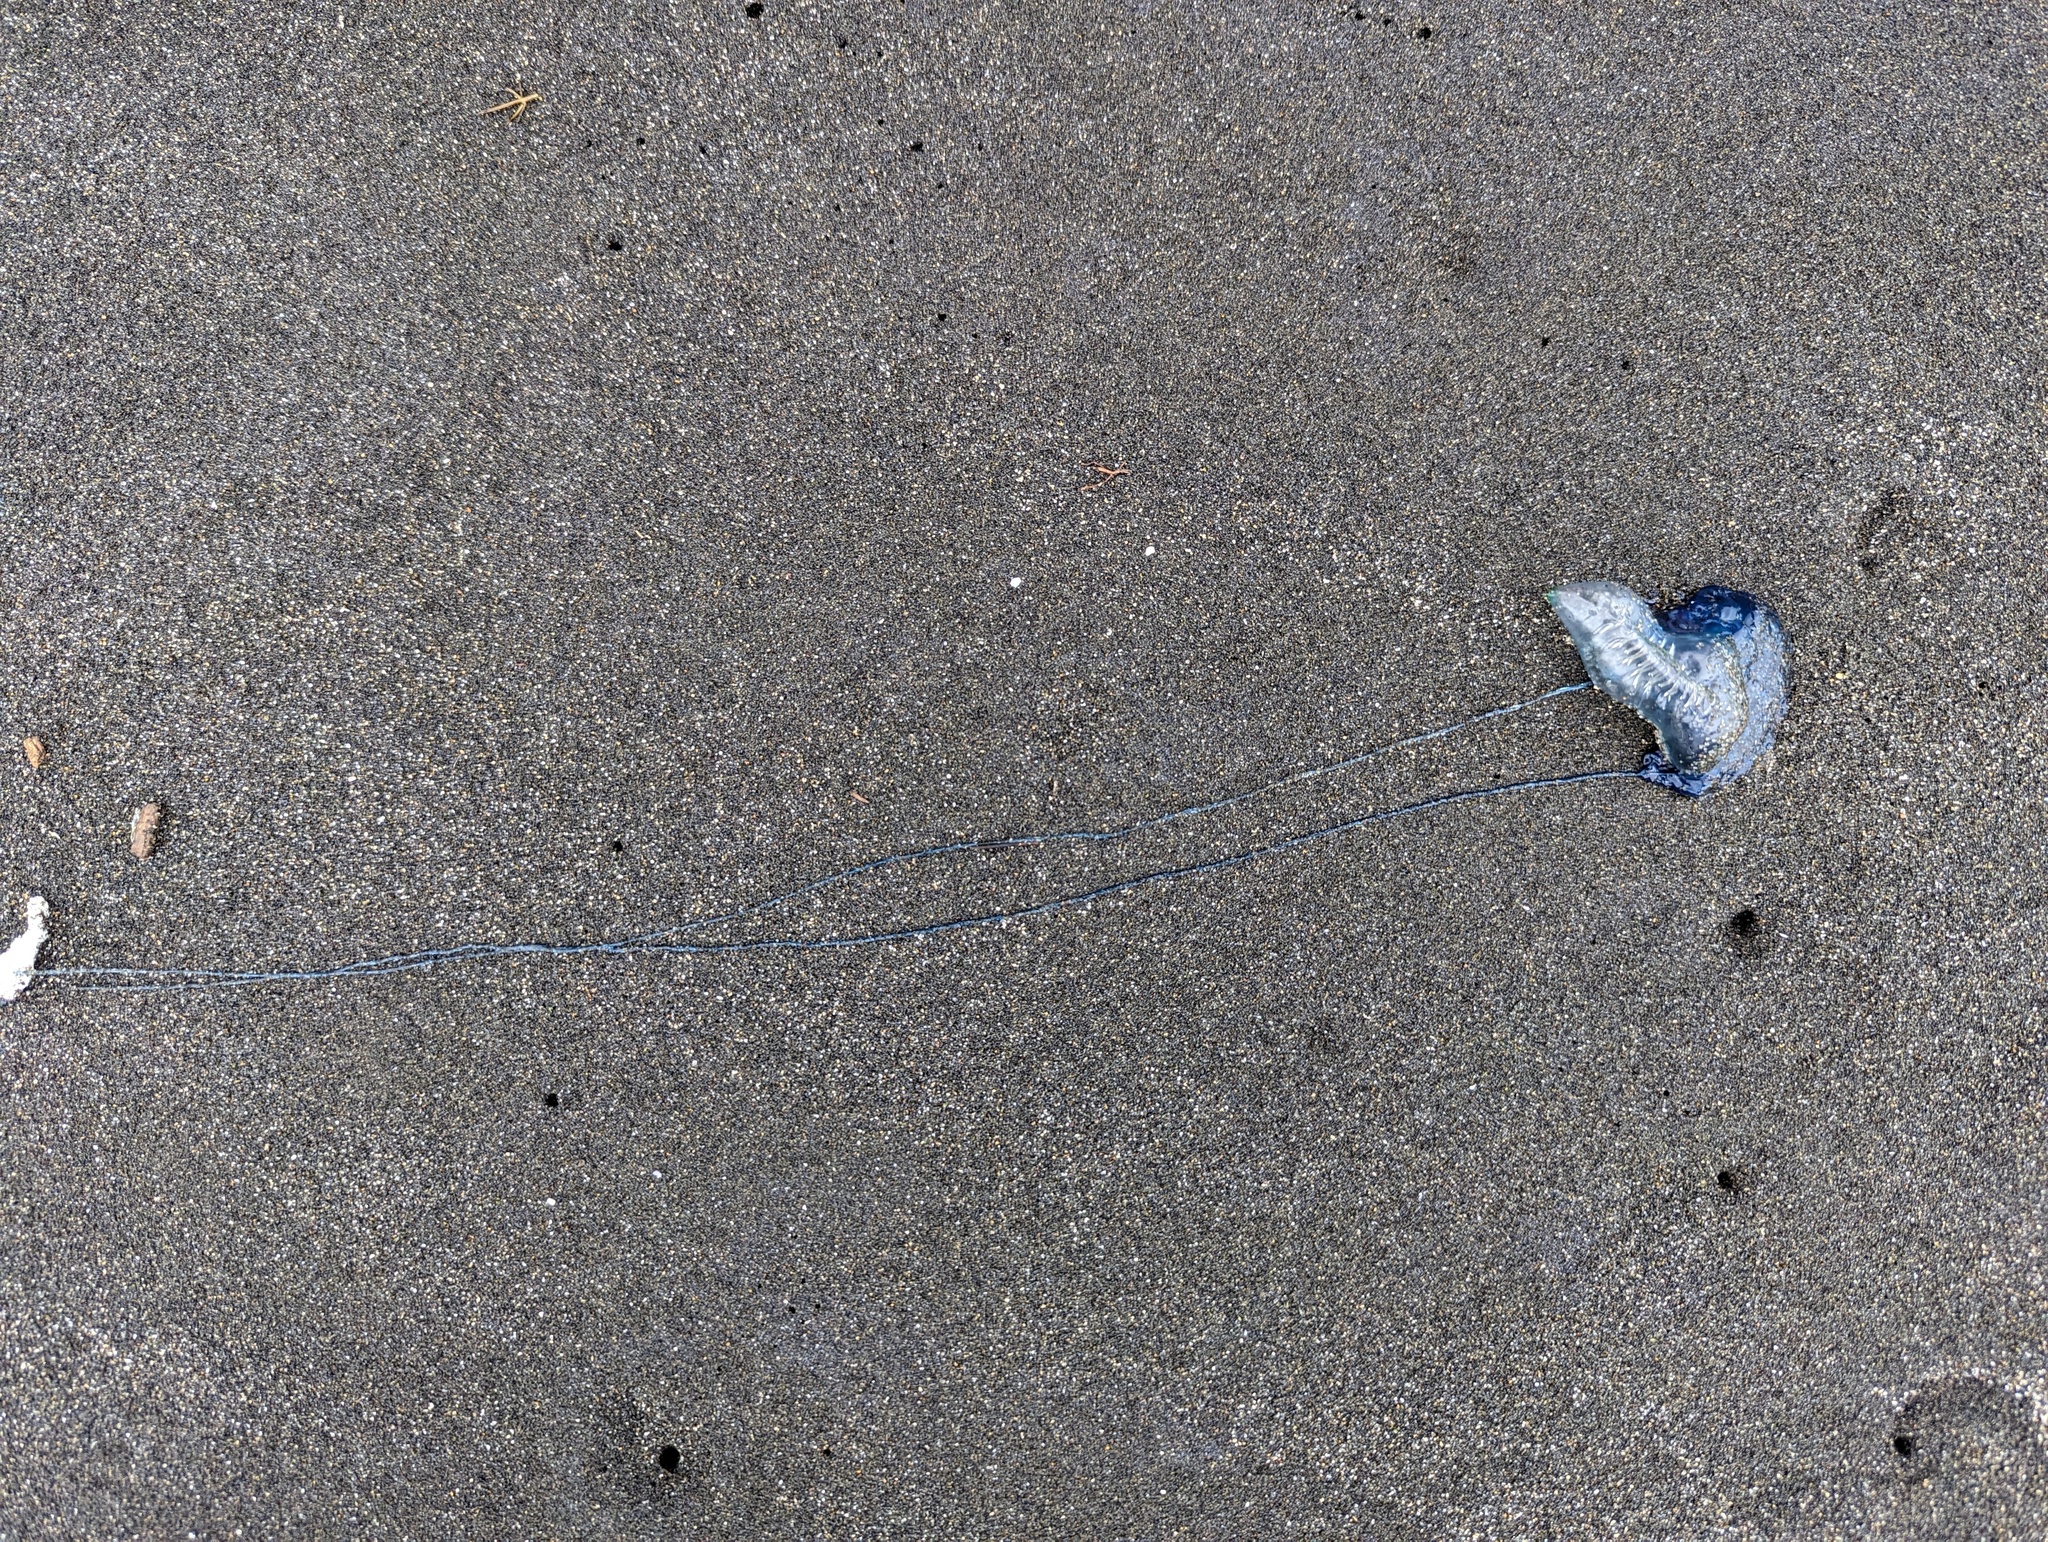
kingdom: Animalia
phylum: Cnidaria
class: Hydrozoa
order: Siphonophorae
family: Physaliidae
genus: Physalia
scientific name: Physalia physalis
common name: Portuguese man-of-war
